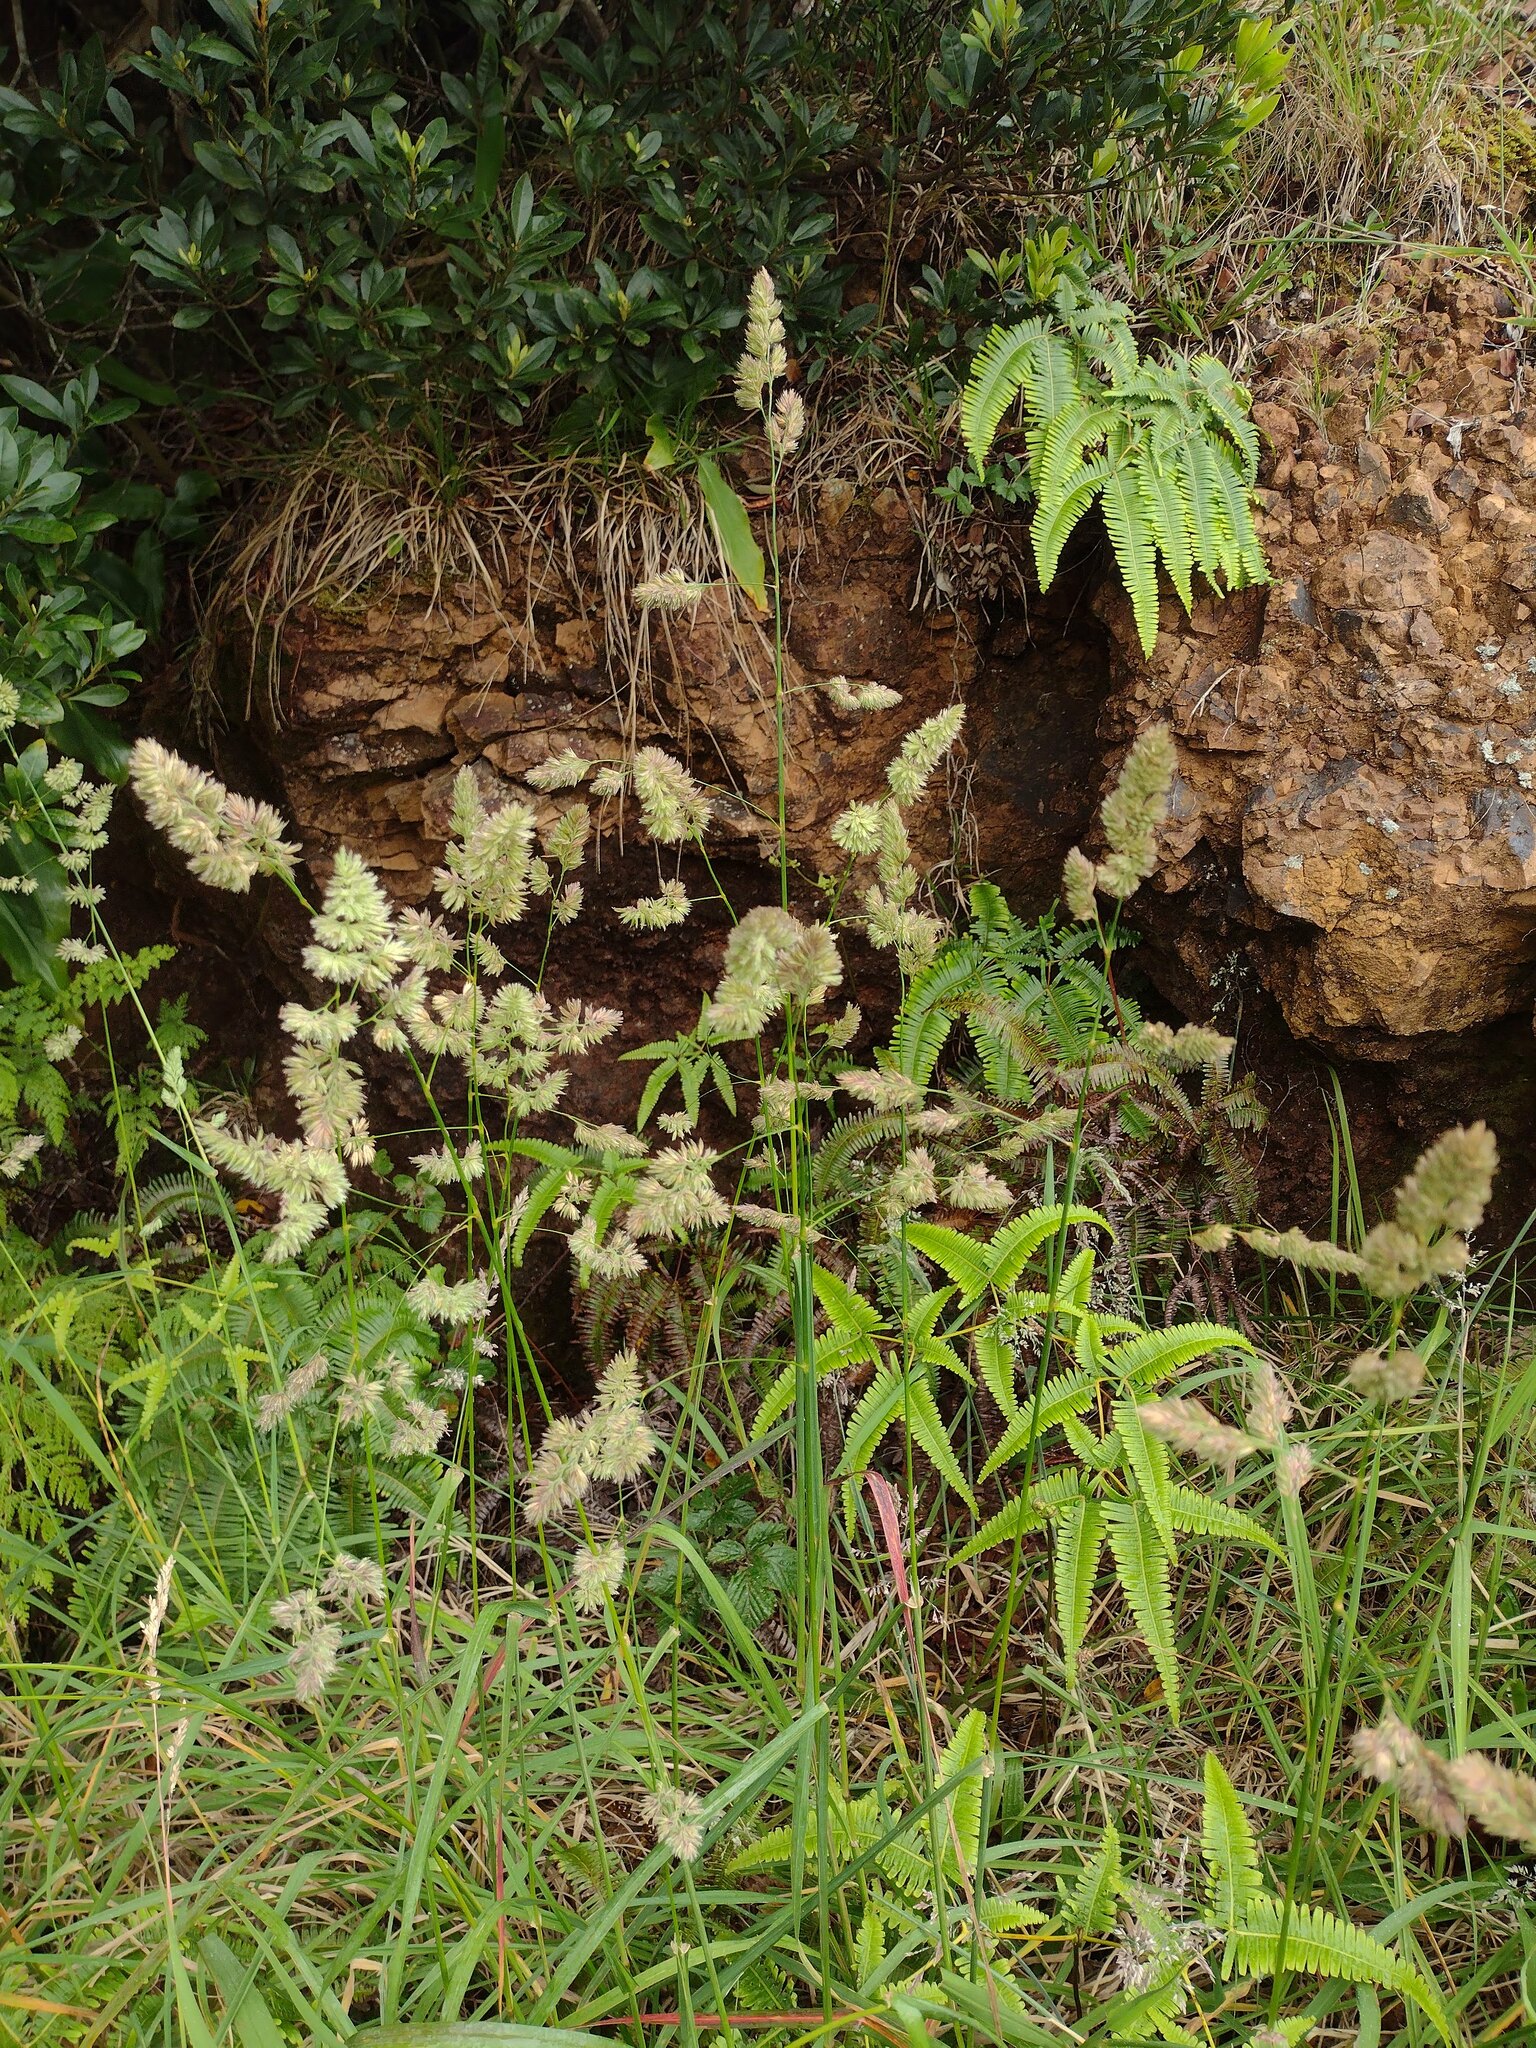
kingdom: Plantae
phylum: Tracheophyta
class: Liliopsida
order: Poales
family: Poaceae
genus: Dactylis
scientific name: Dactylis glomerata
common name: Orchardgrass
